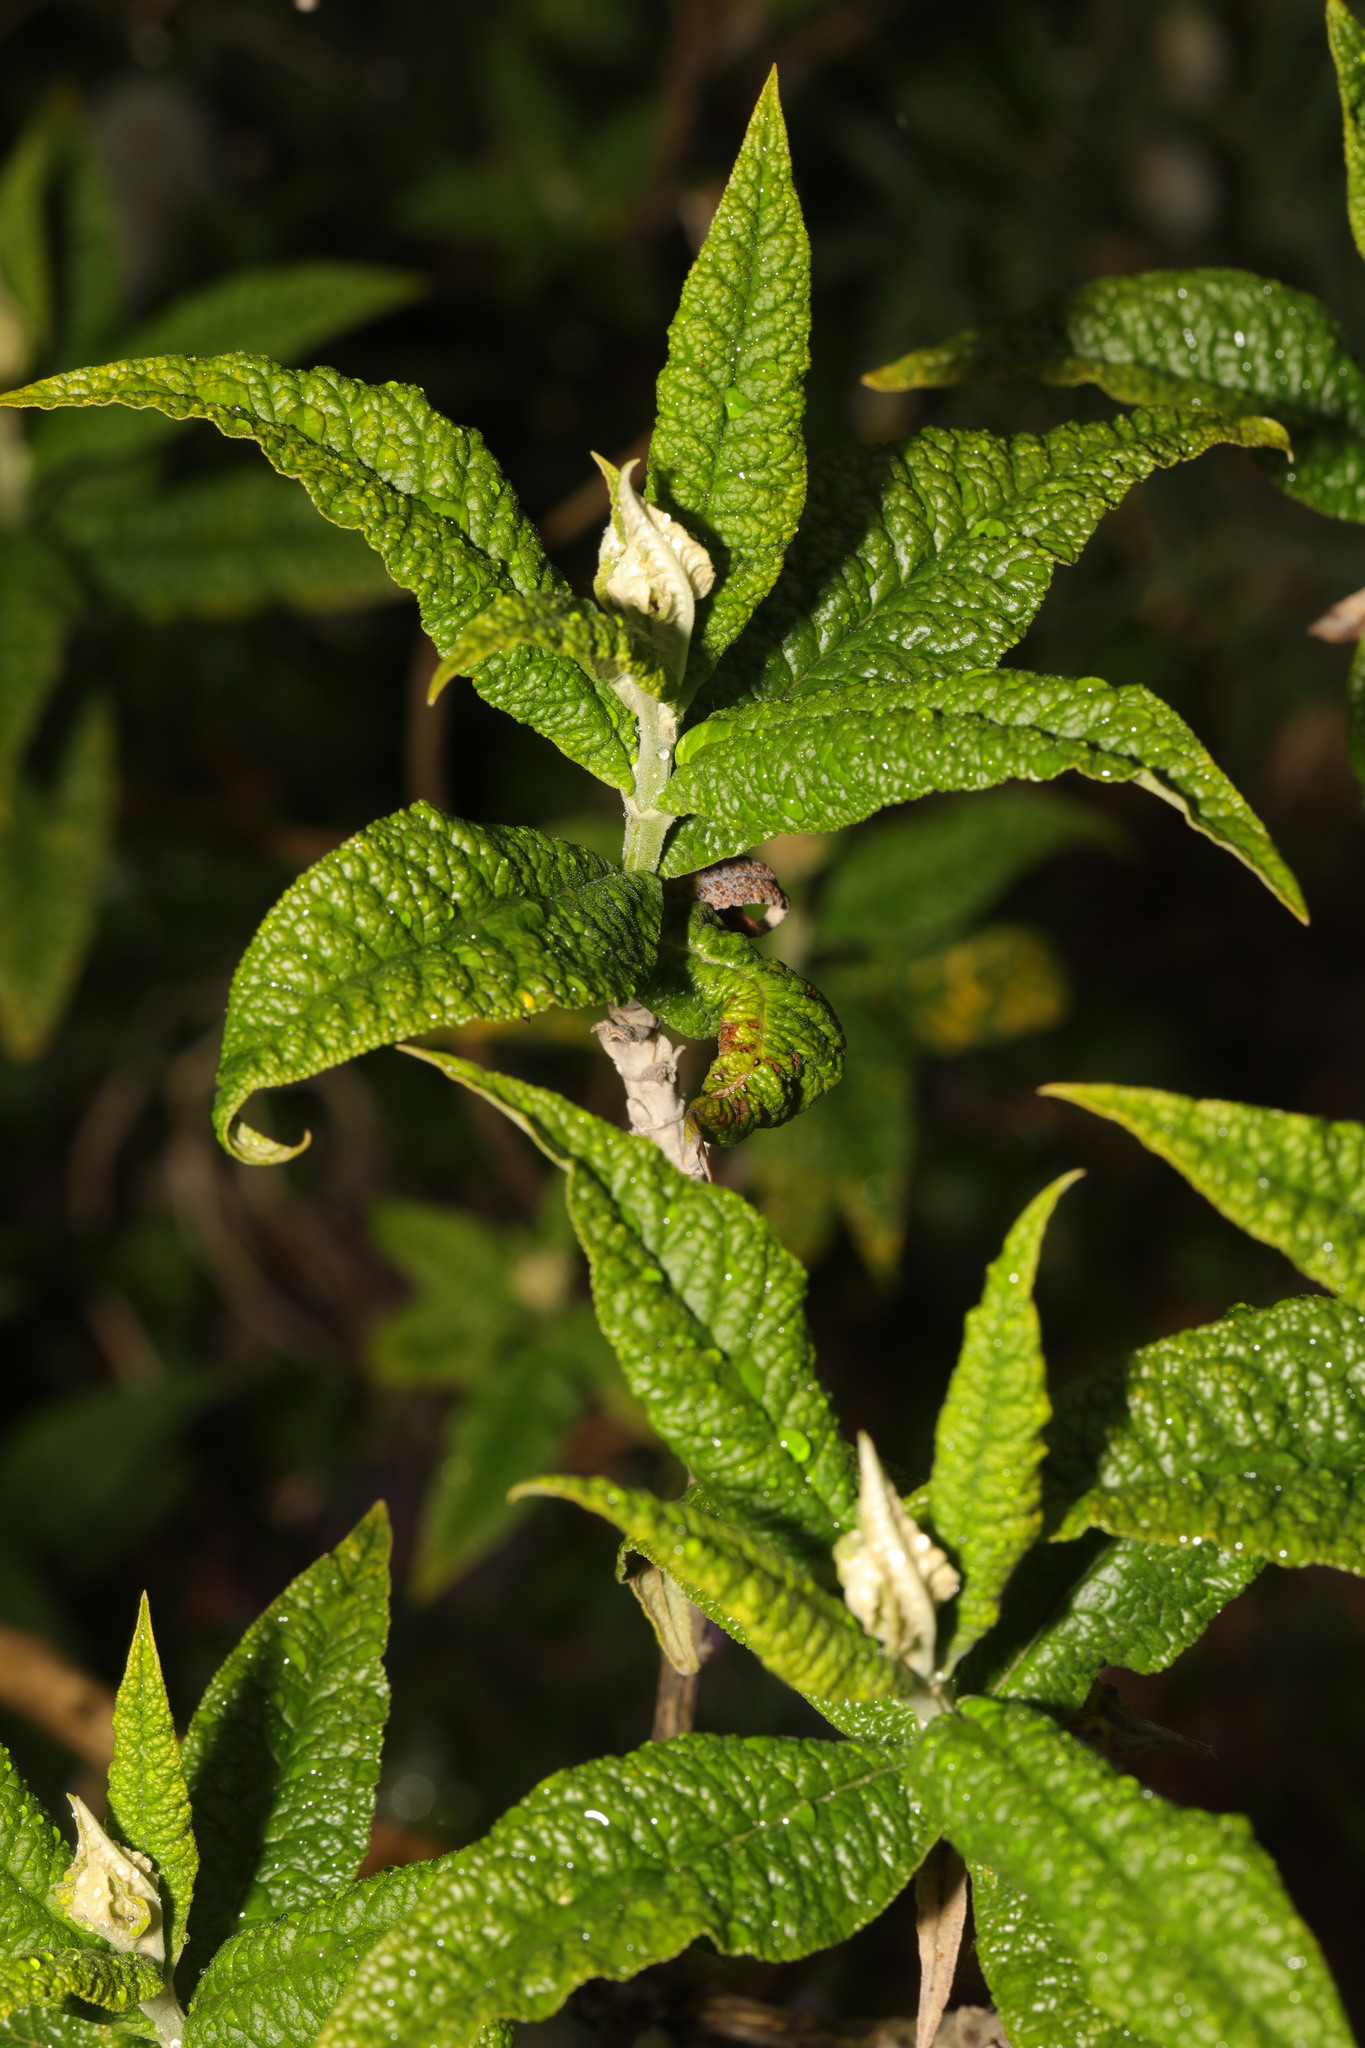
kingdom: Plantae
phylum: Tracheophyta
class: Magnoliopsida
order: Lamiales
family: Scrophulariaceae
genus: Buddleja
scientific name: Buddleja davidii
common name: Butterfly-bush
